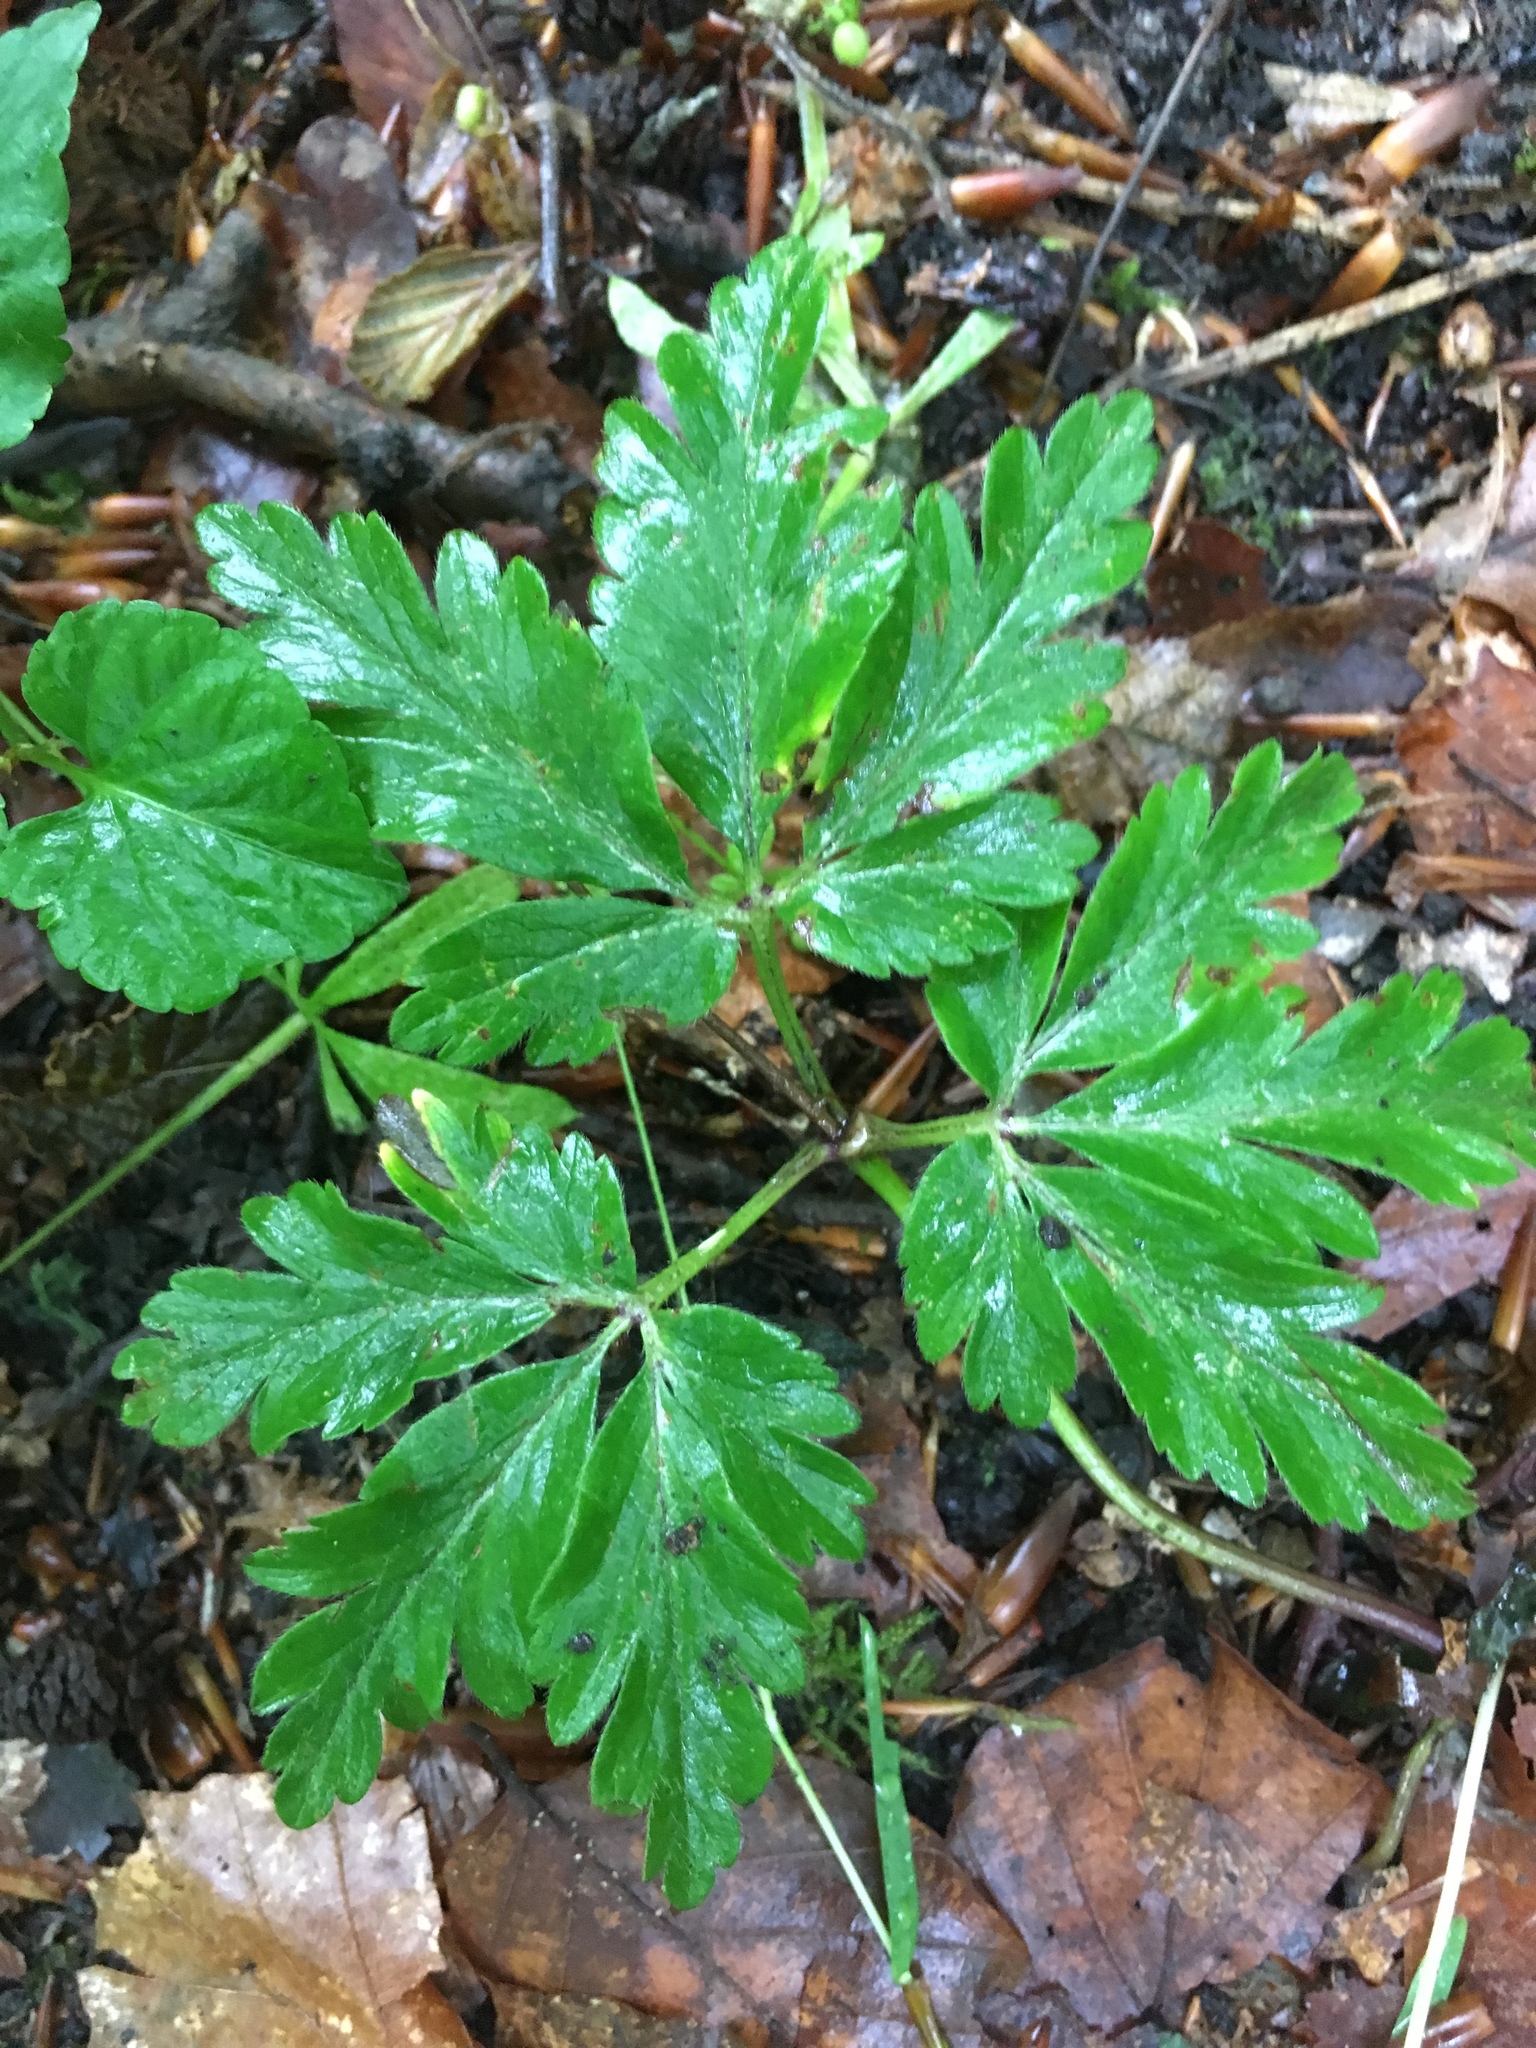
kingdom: Plantae
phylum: Tracheophyta
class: Magnoliopsida
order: Ranunculales
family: Ranunculaceae
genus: Anemone
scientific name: Anemone nemorosa
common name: Wood anemone
